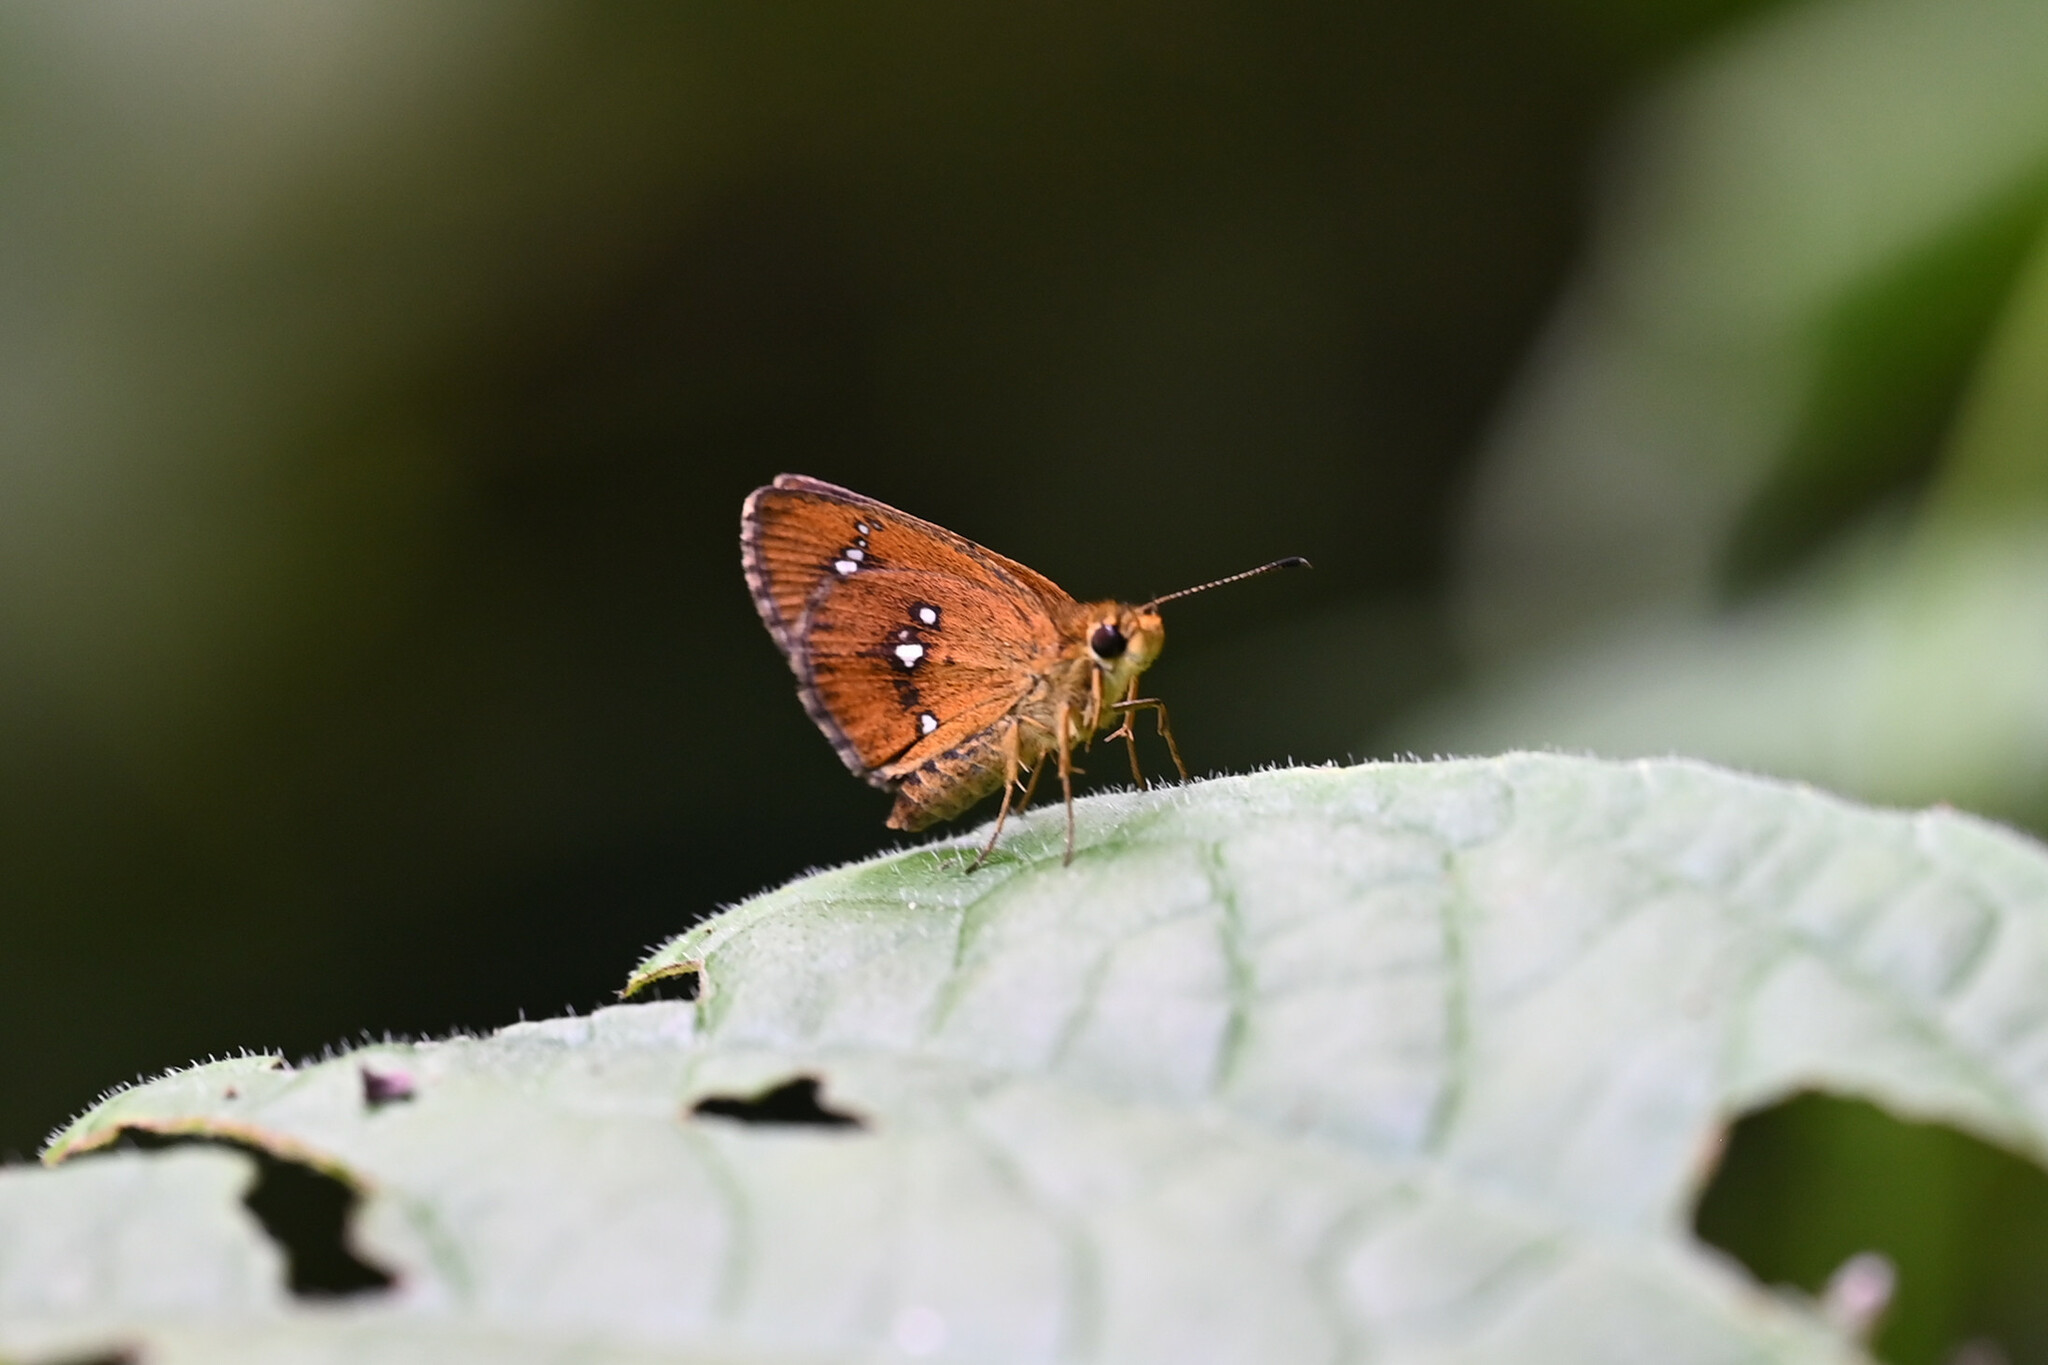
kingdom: Animalia
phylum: Arthropoda
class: Insecta
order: Lepidoptera
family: Hesperiidae
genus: Iambrix
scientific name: Iambrix salsala
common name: Chestnut bob
